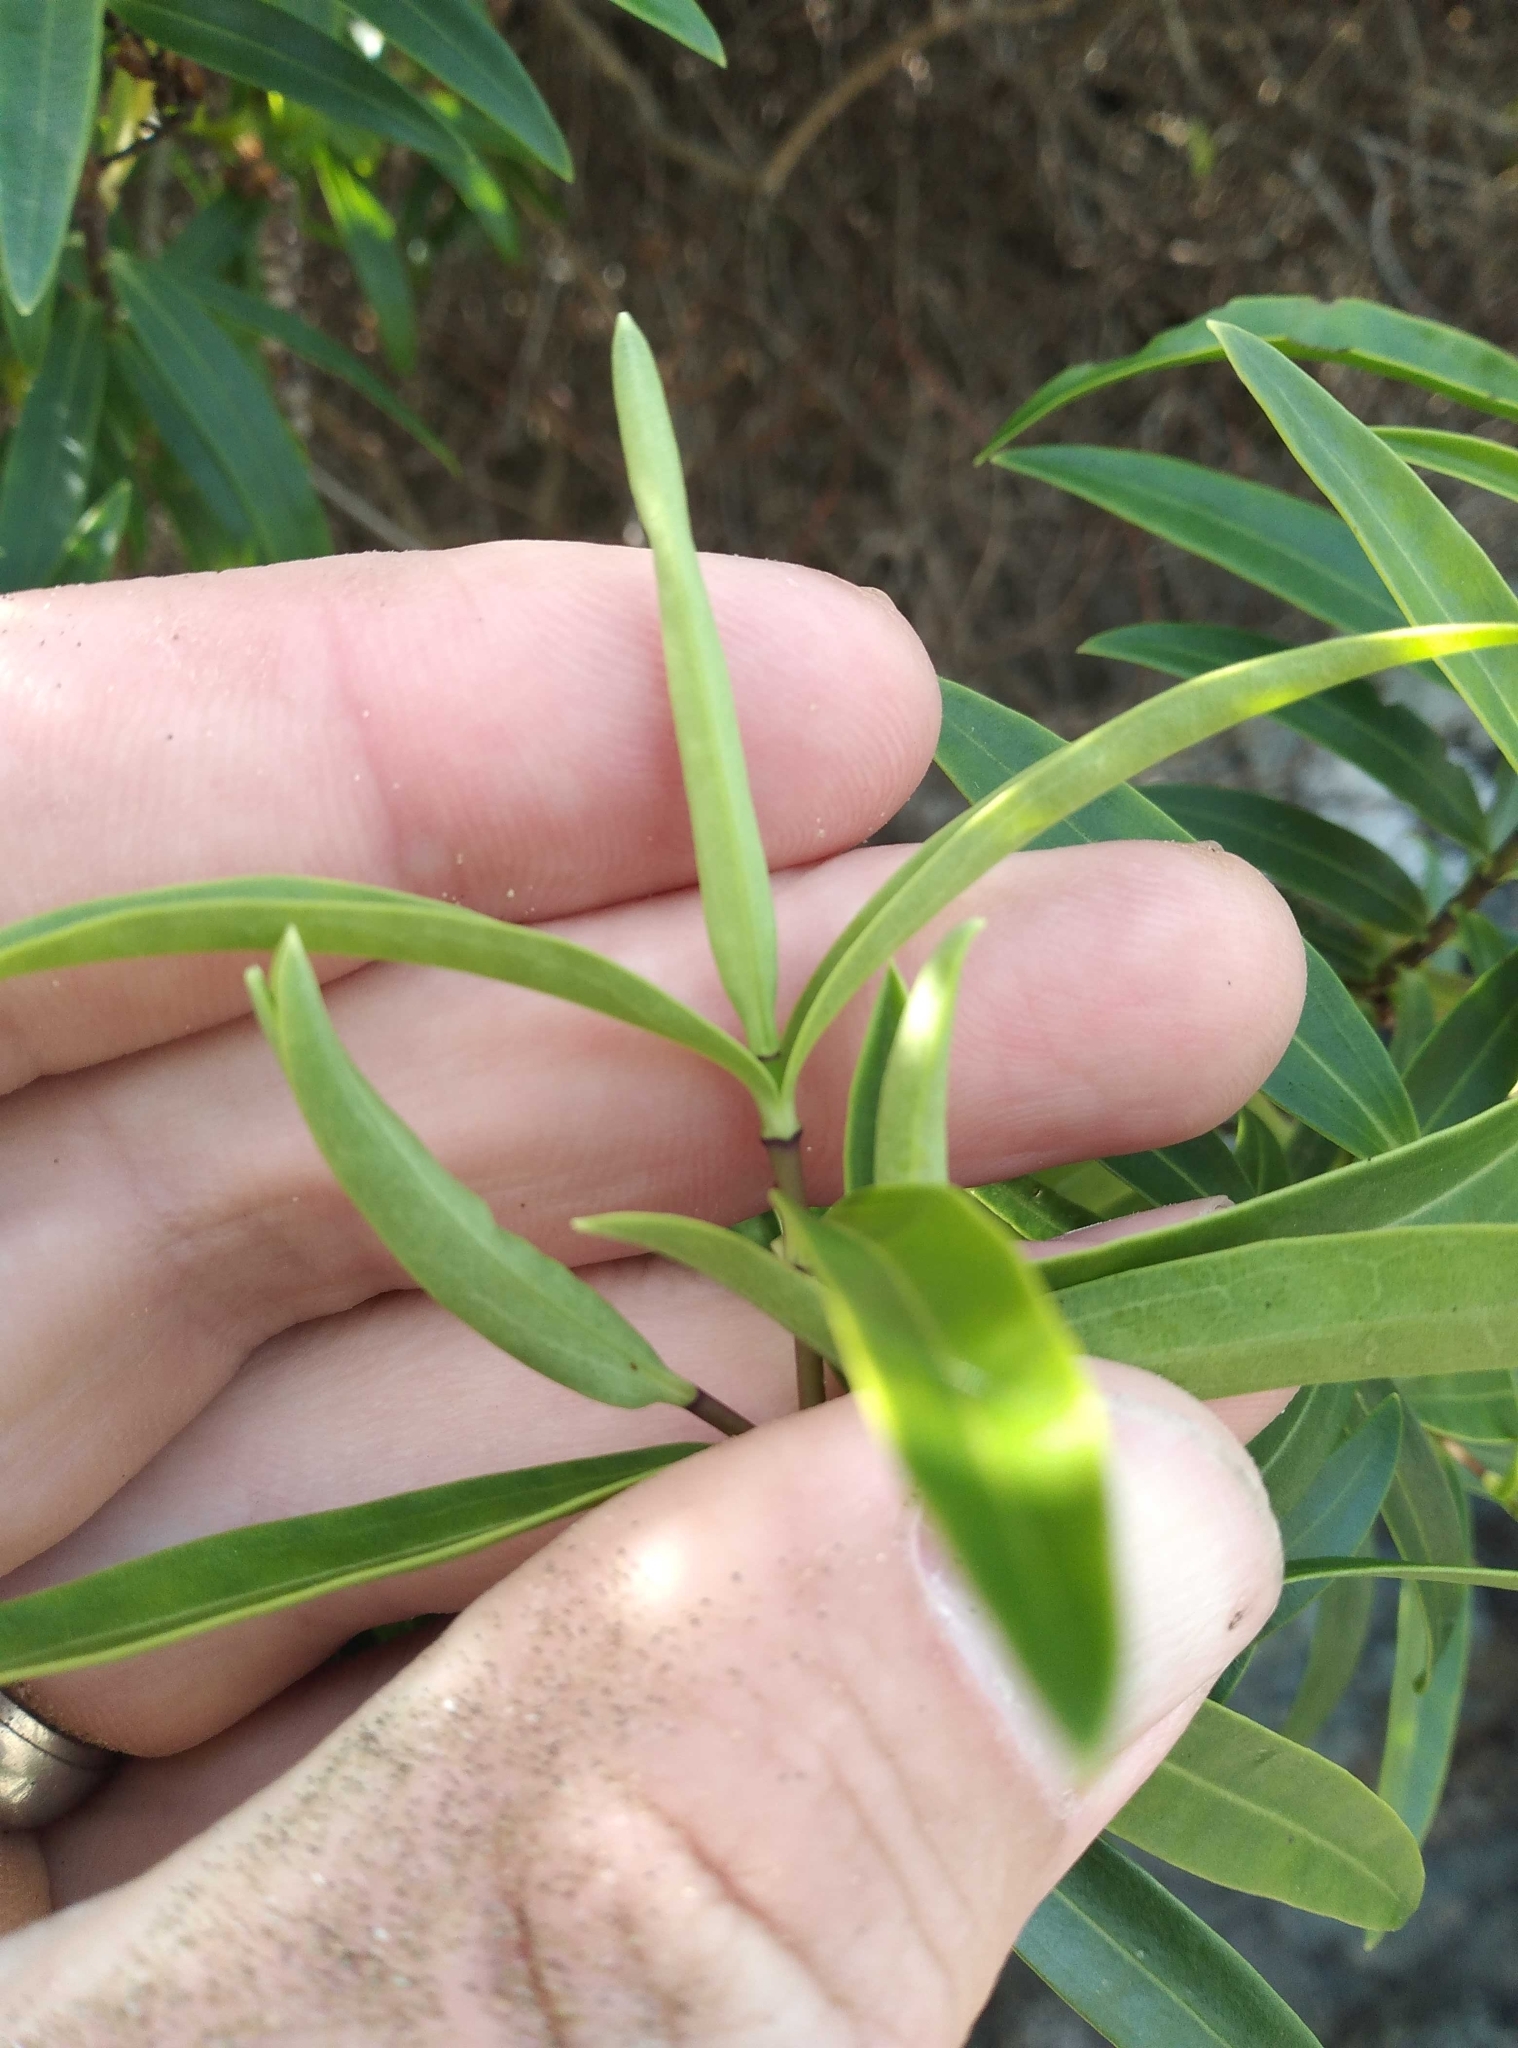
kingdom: Plantae
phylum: Tracheophyta
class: Magnoliopsida
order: Lamiales
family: Plantaginaceae
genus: Veronica
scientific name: Veronica strictissima
